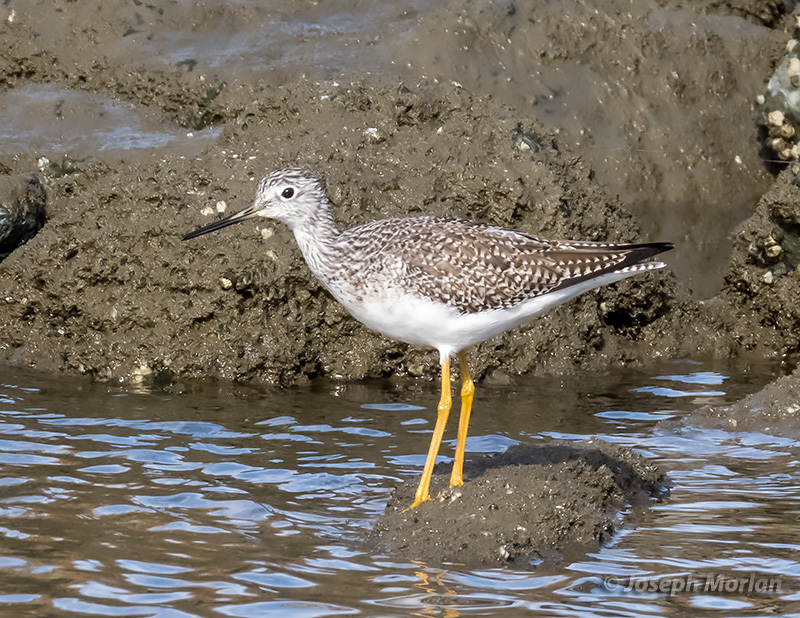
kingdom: Animalia
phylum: Chordata
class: Aves
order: Charadriiformes
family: Scolopacidae
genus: Tringa
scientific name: Tringa melanoleuca
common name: Greater yellowlegs
